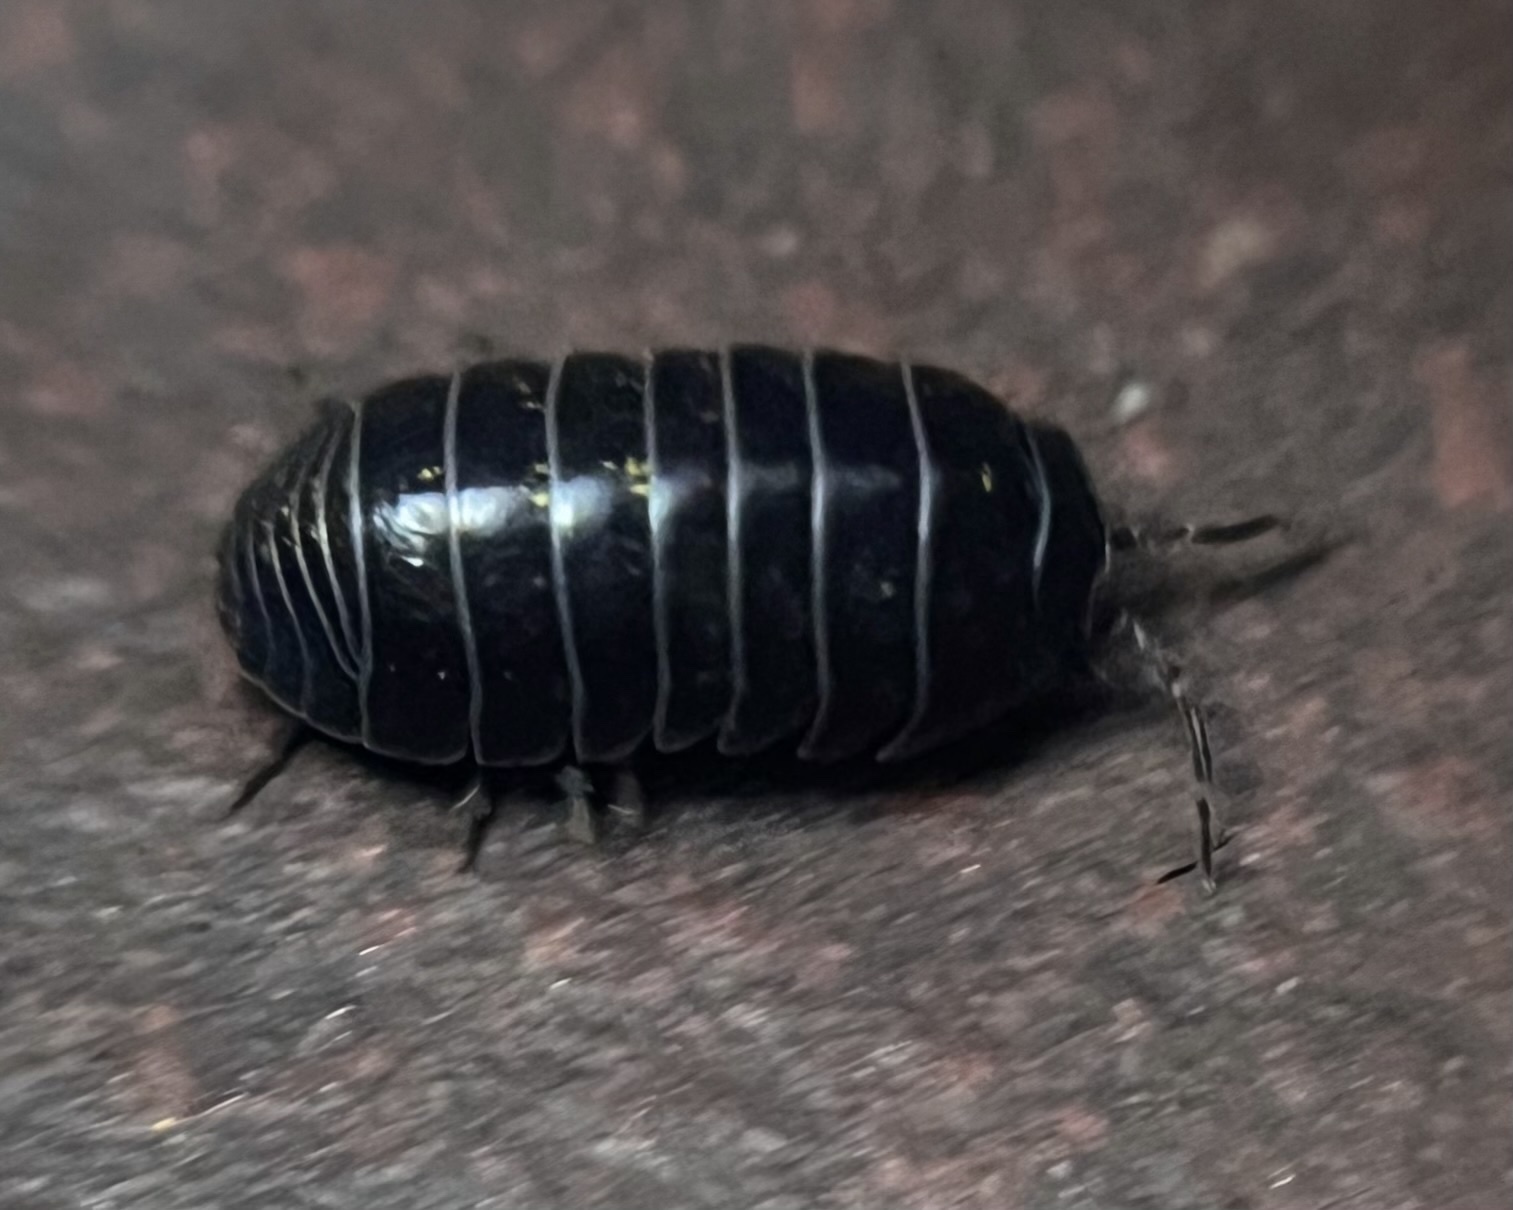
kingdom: Animalia
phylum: Arthropoda
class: Malacostraca
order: Isopoda
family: Armadillidiidae
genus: Armadillidium
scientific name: Armadillidium vulgare
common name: Common pill woodlouse
